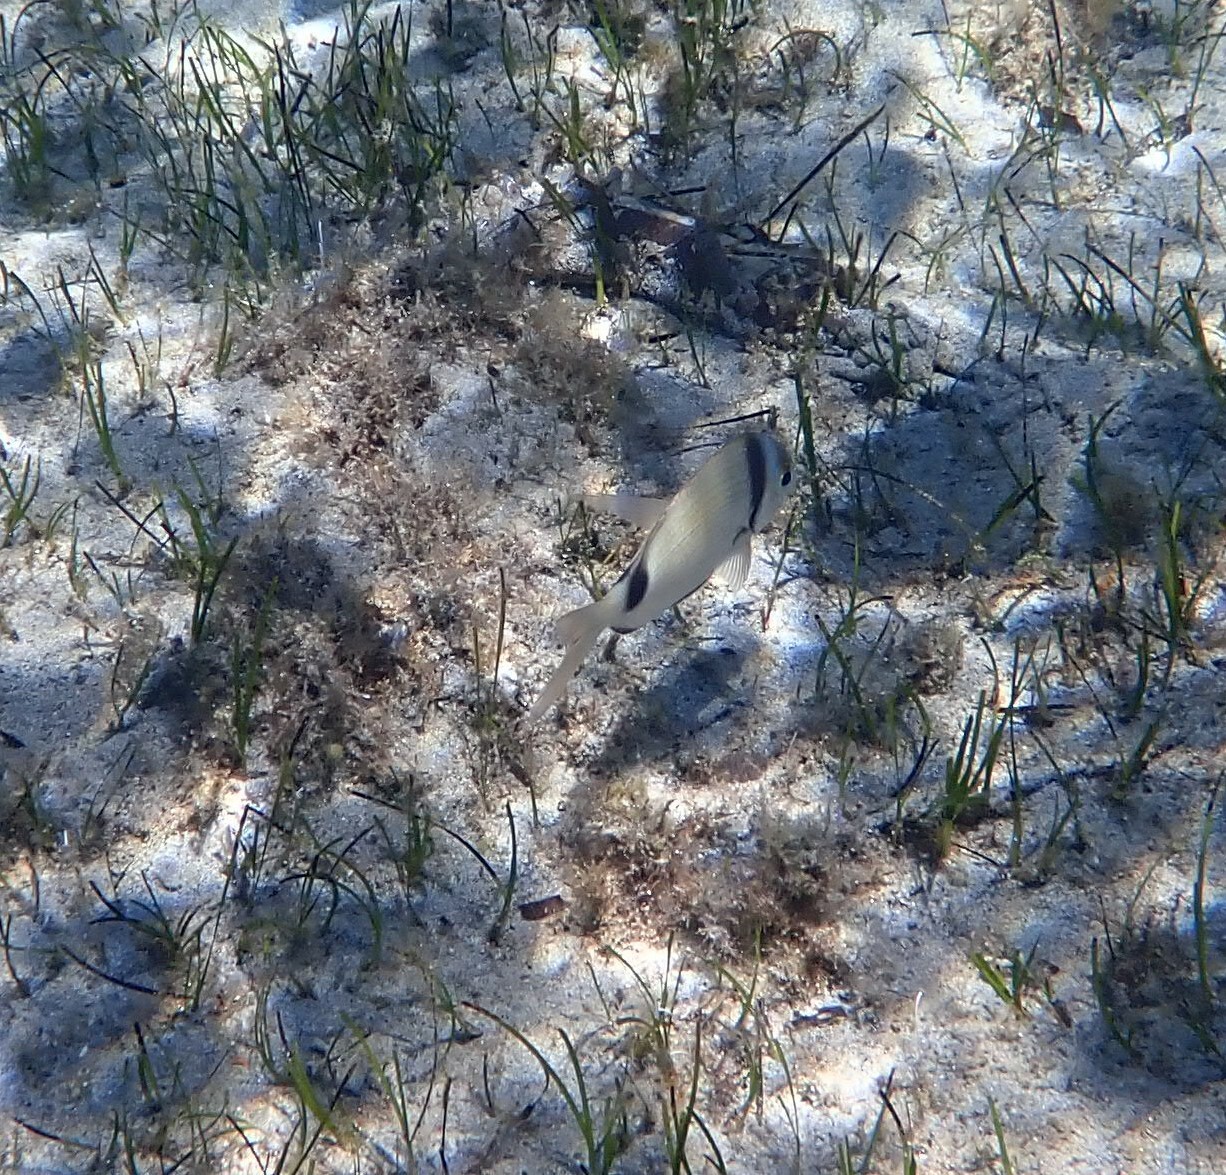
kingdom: Animalia
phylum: Chordata
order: Perciformes
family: Sparidae
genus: Diplodus
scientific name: Diplodus vulgaris
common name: Common two-banded seabream
